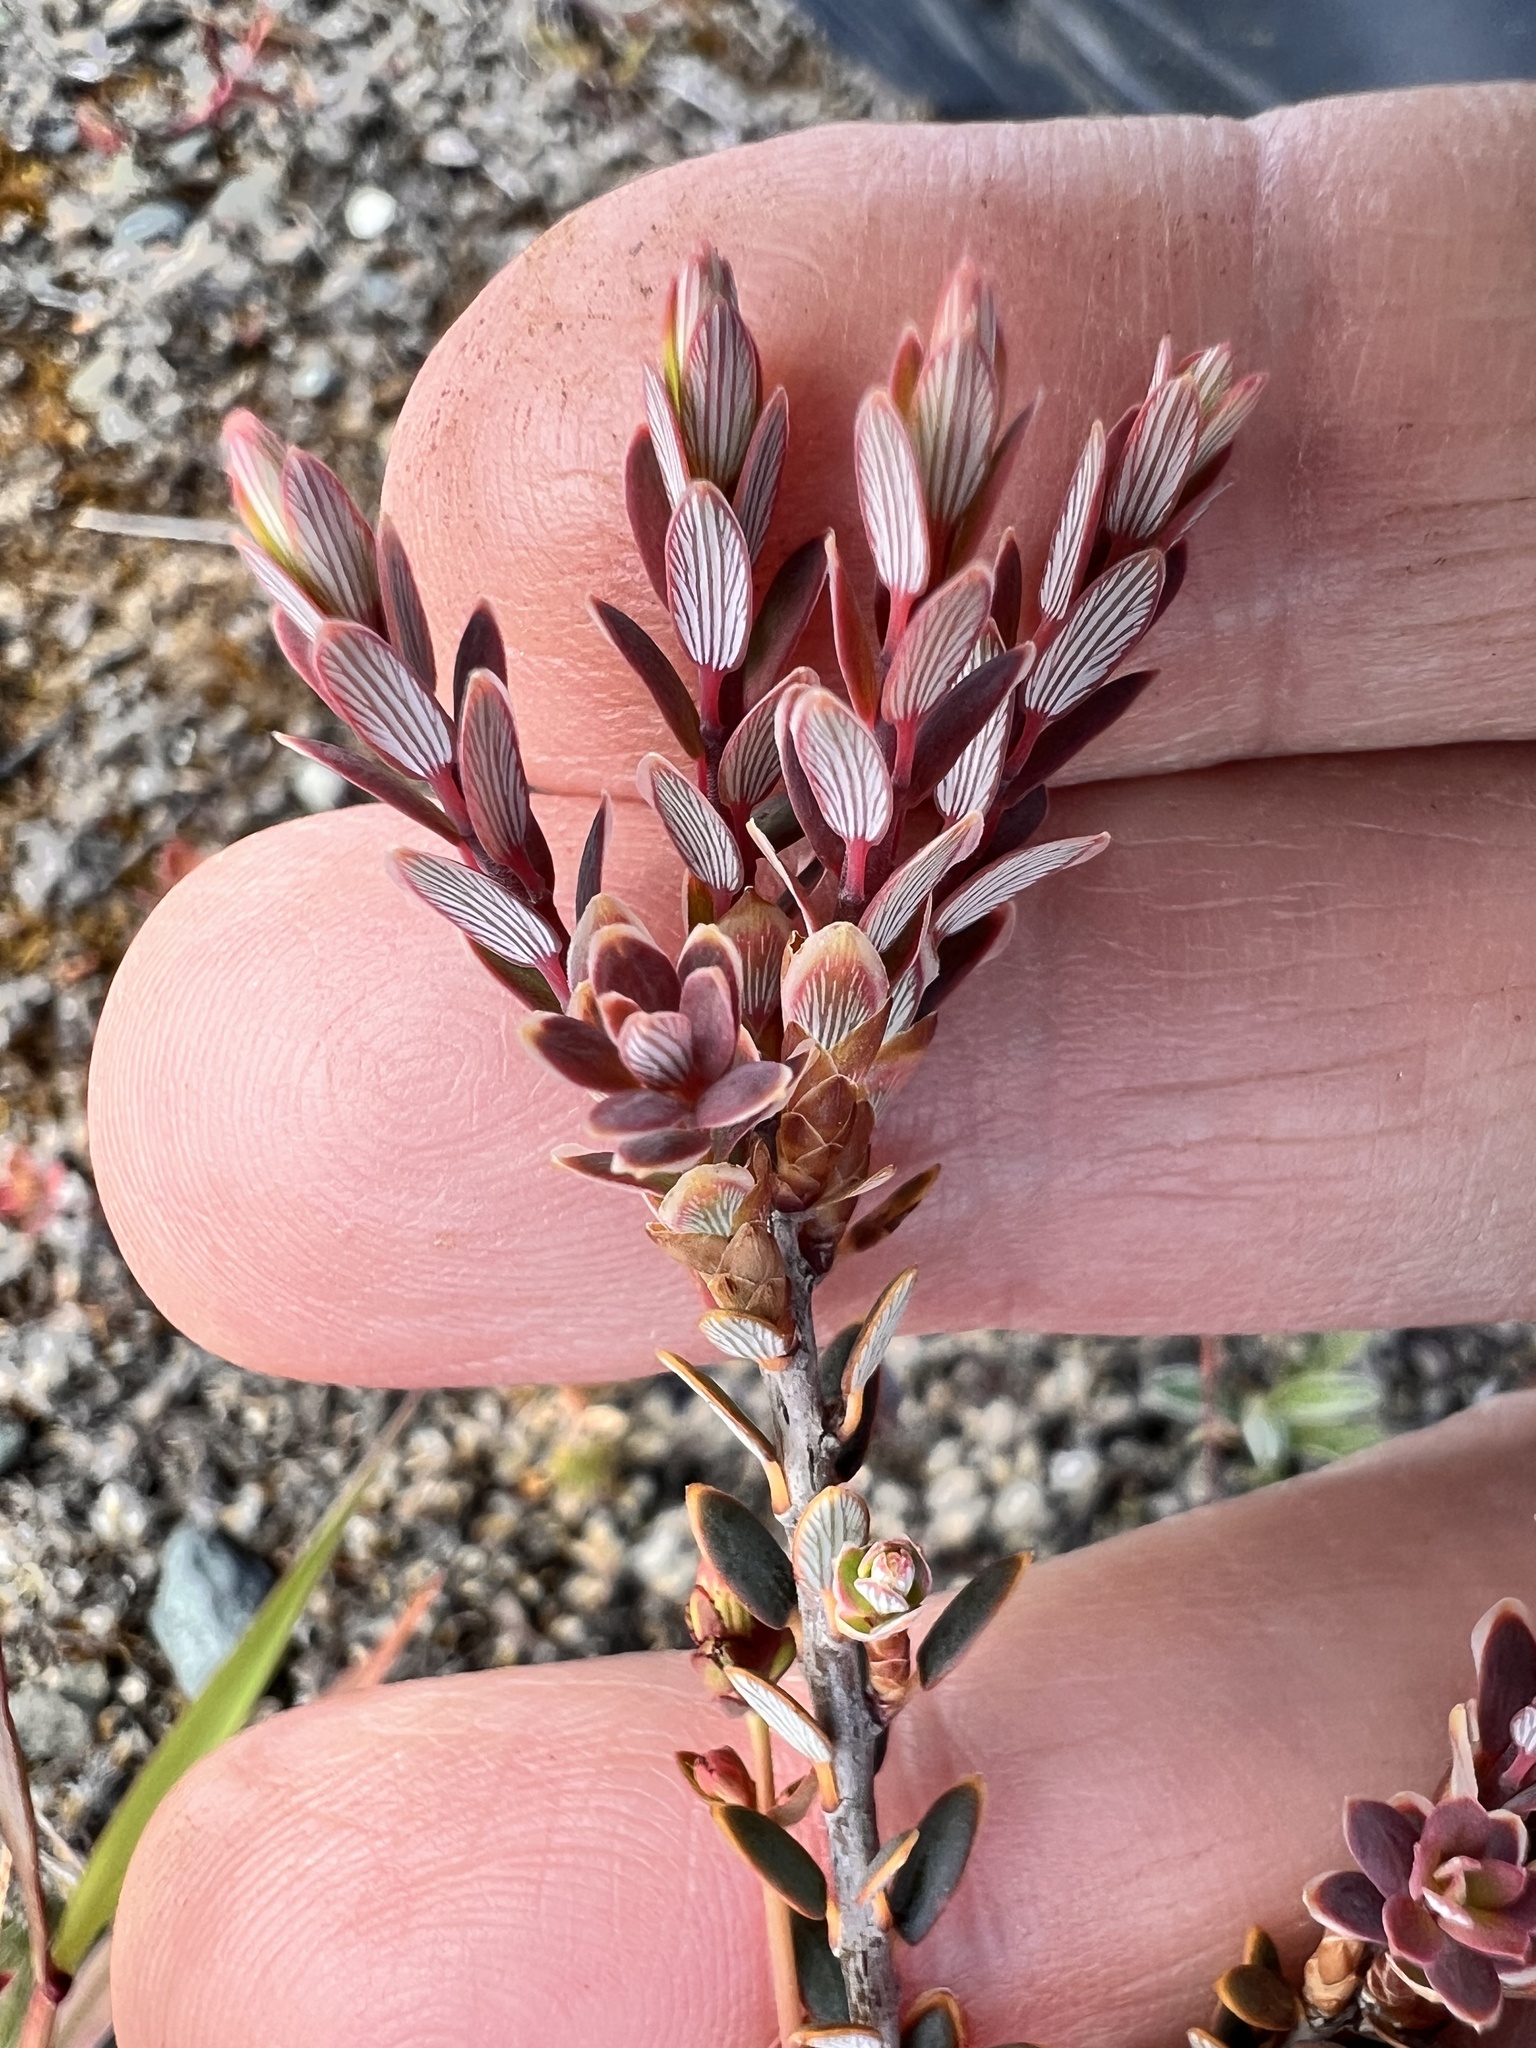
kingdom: Plantae
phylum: Tracheophyta
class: Magnoliopsida
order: Ericales
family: Ericaceae
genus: Acrothamnus
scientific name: Acrothamnus colensoi
